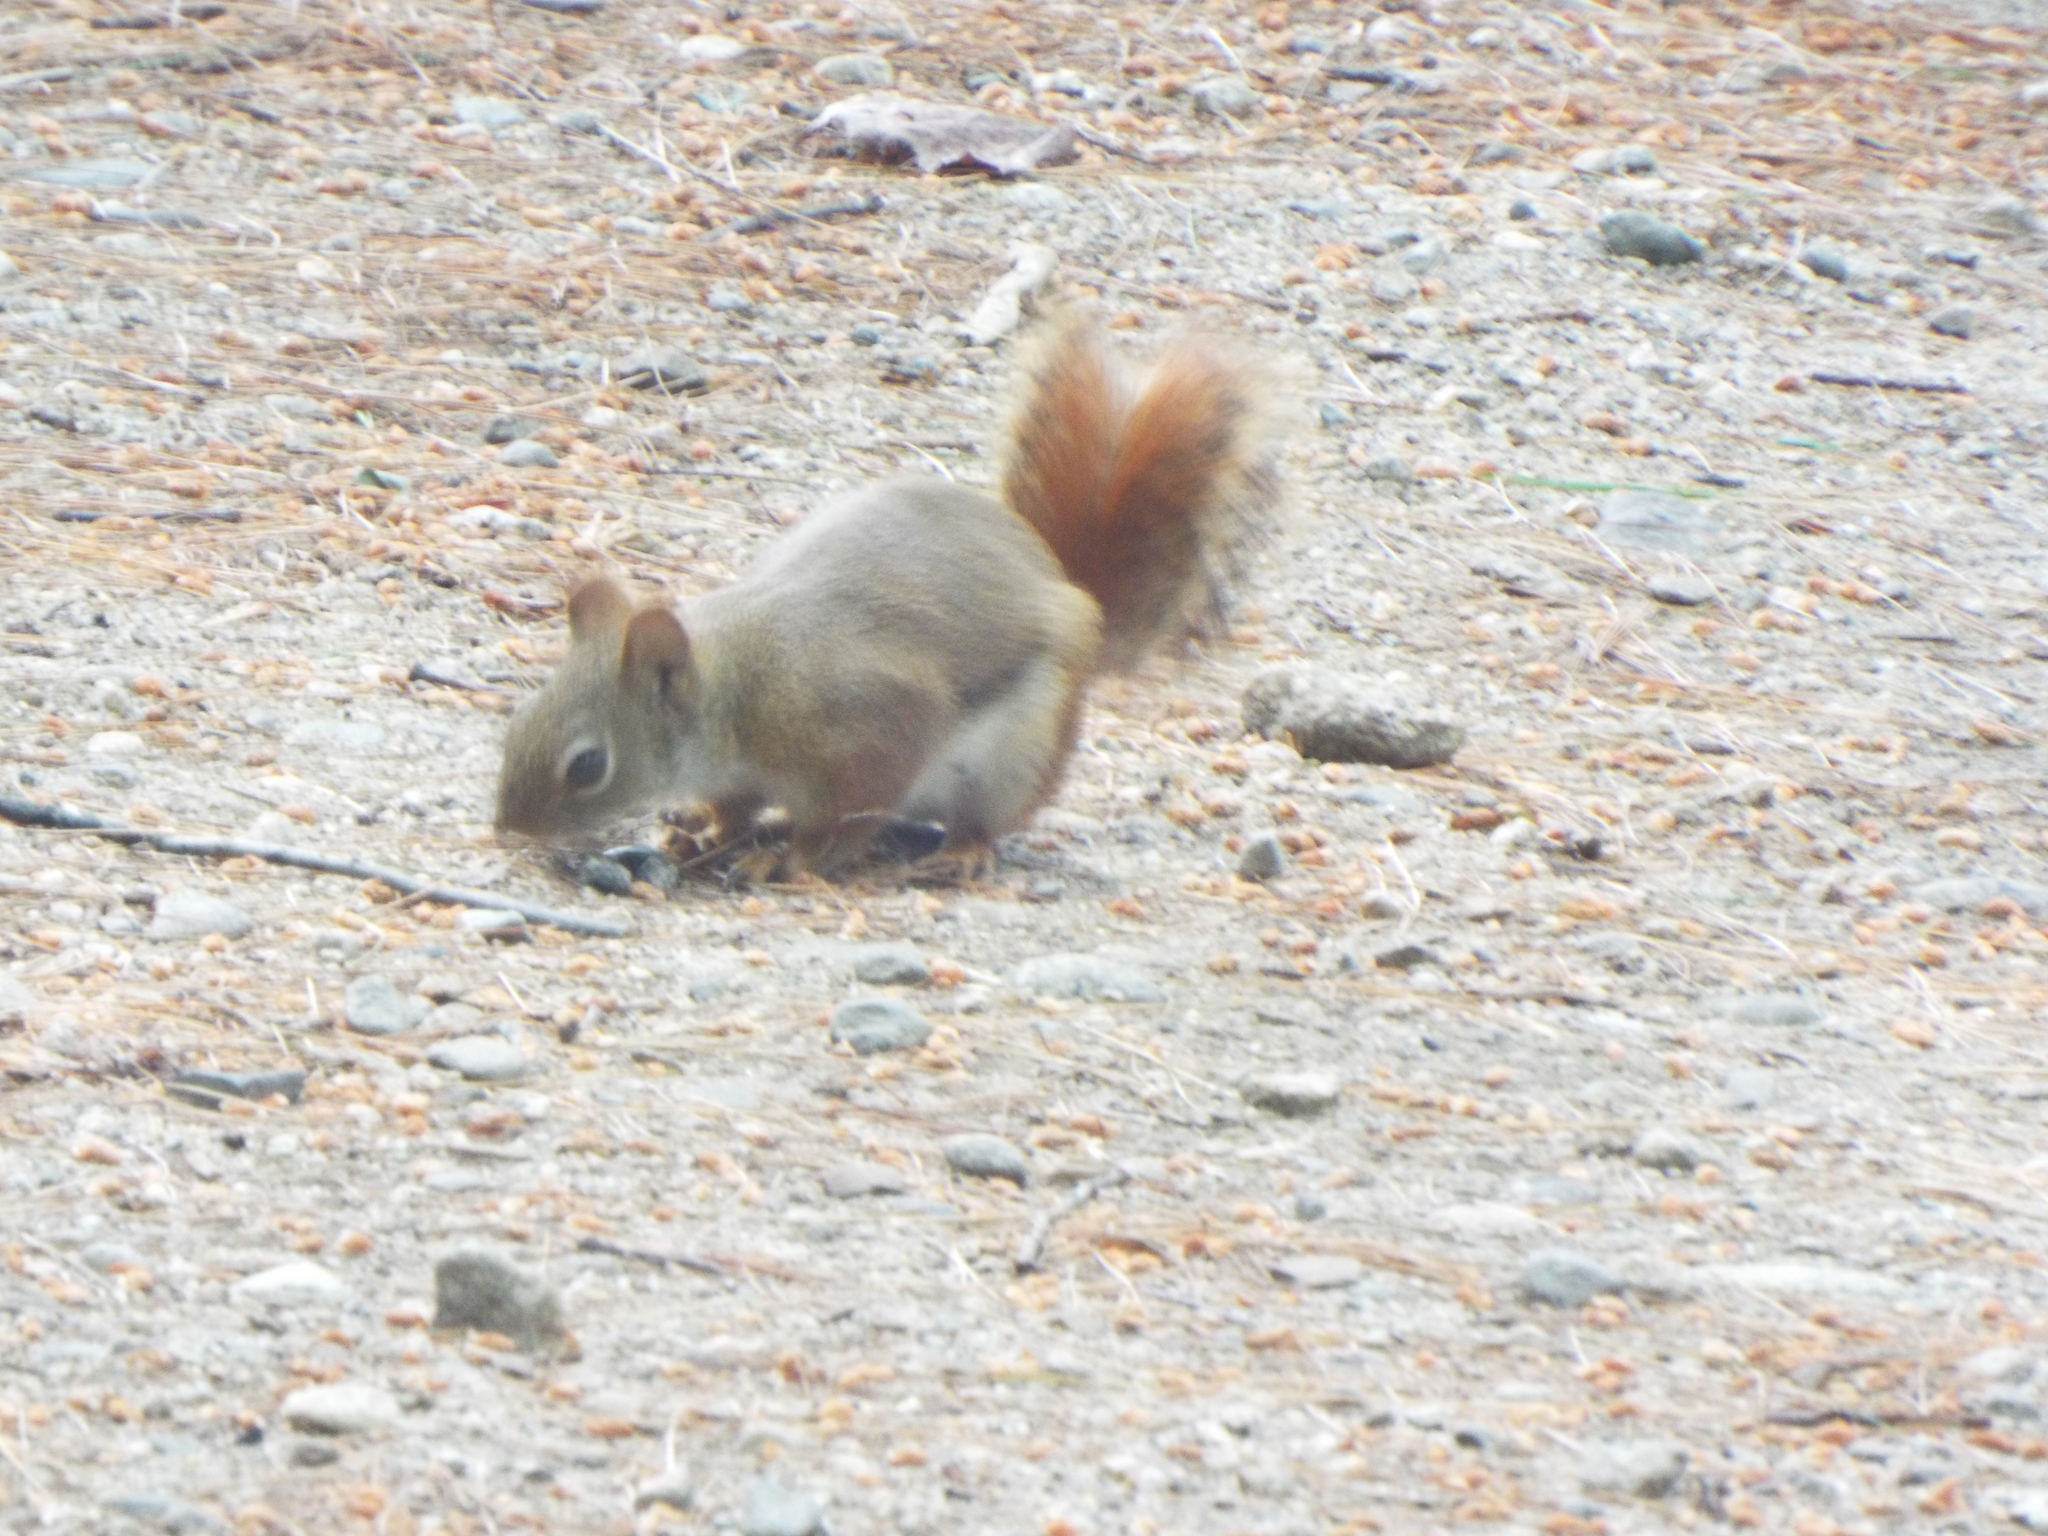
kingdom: Animalia
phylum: Chordata
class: Mammalia
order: Rodentia
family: Sciuridae
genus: Tamiasciurus
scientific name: Tamiasciurus hudsonicus
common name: Red squirrel
